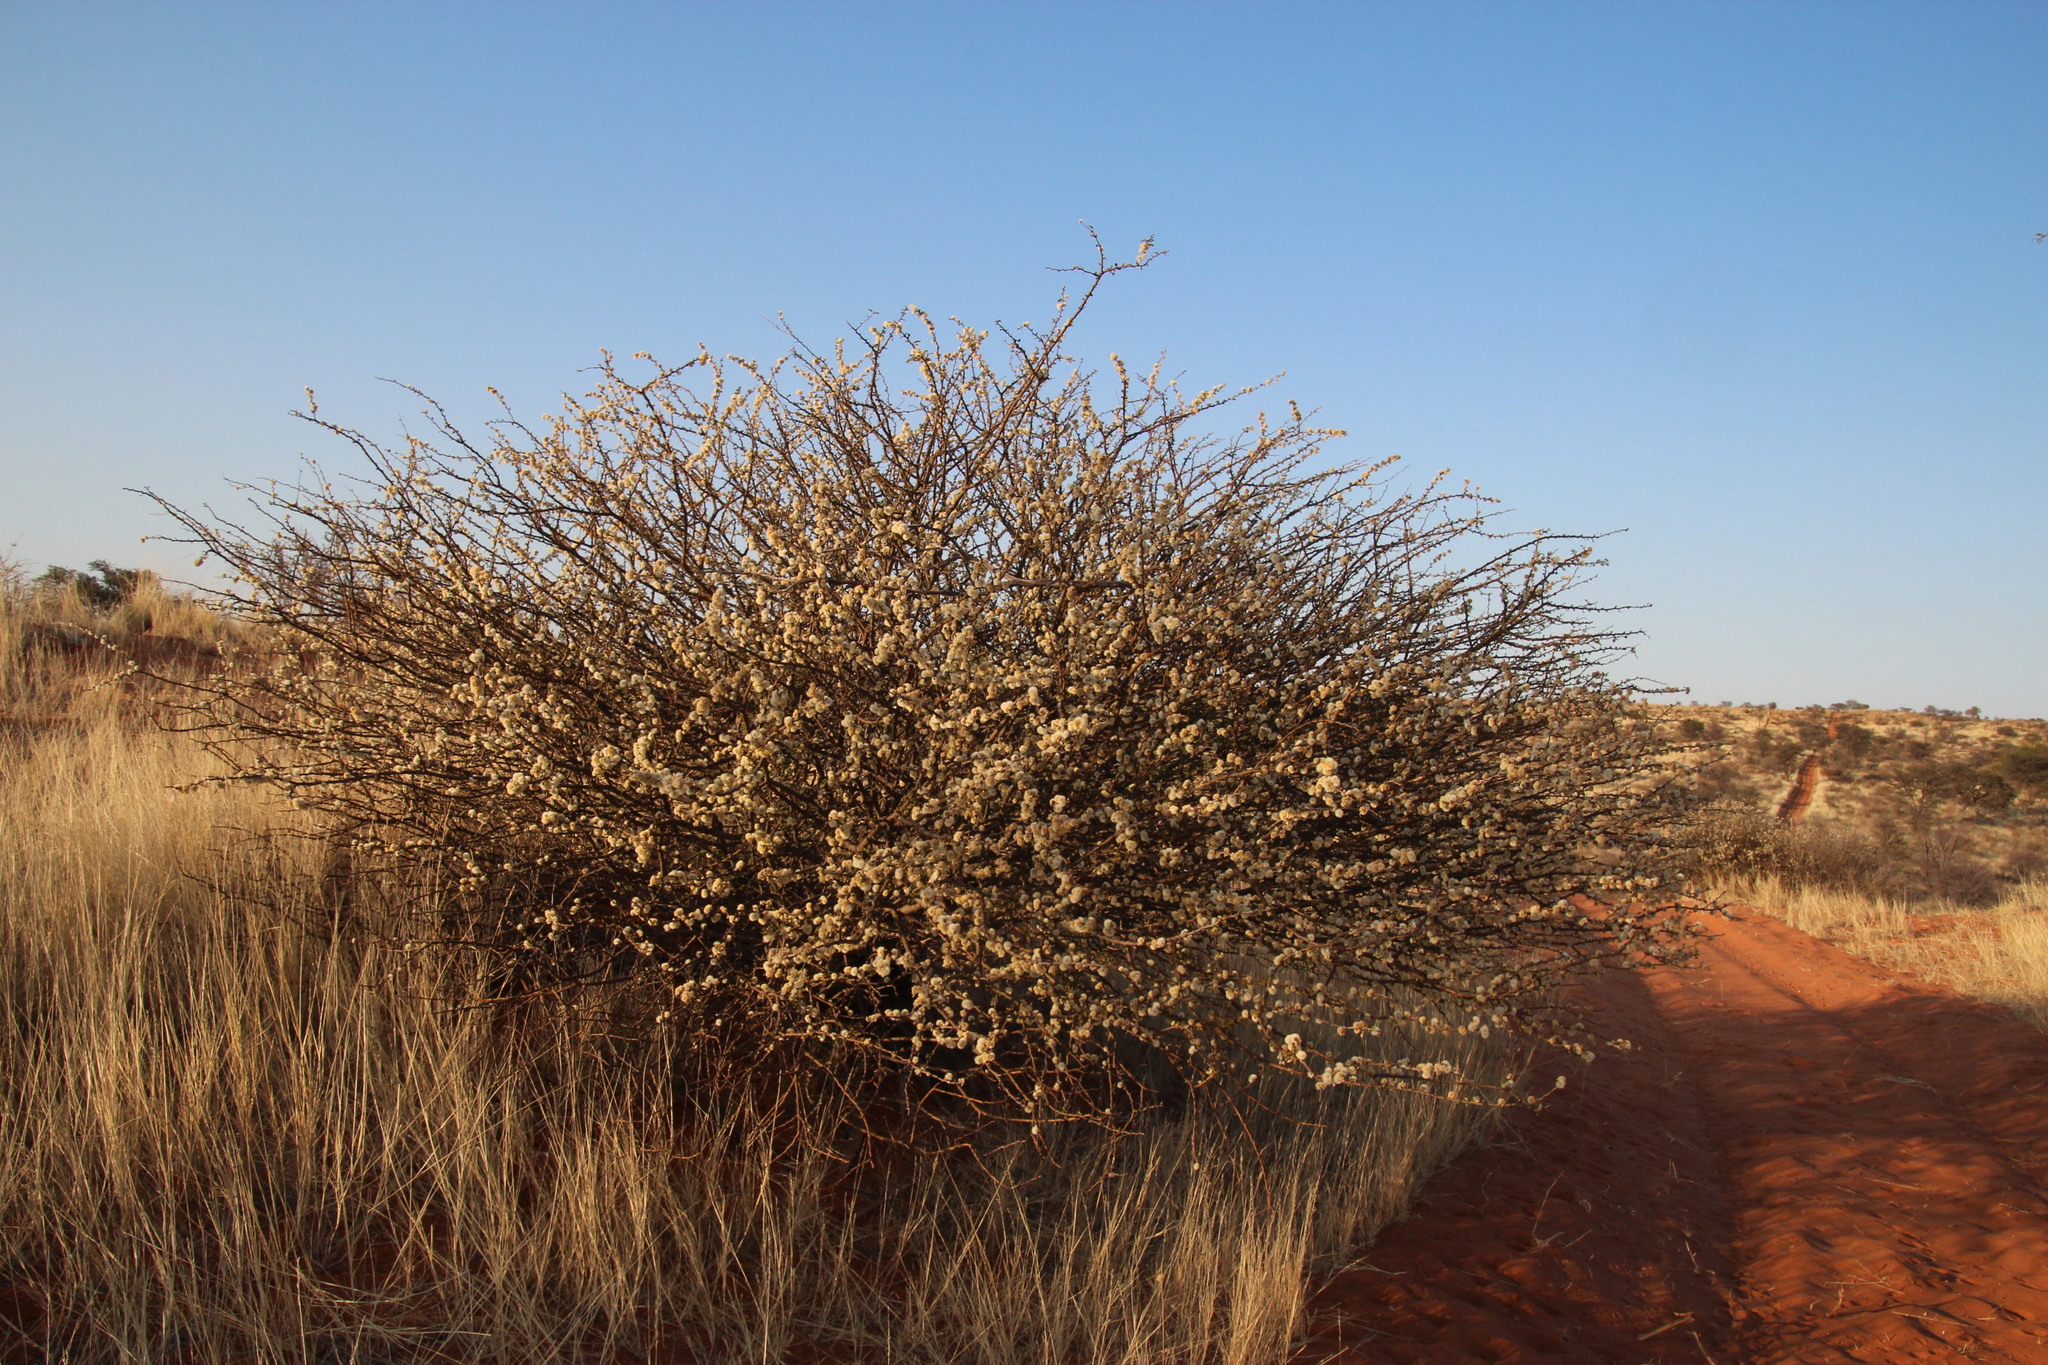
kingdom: Plantae
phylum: Tracheophyta
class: Magnoliopsida
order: Fabales
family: Fabaceae
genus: Senegalia
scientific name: Senegalia mellifera
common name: Hookthorn
